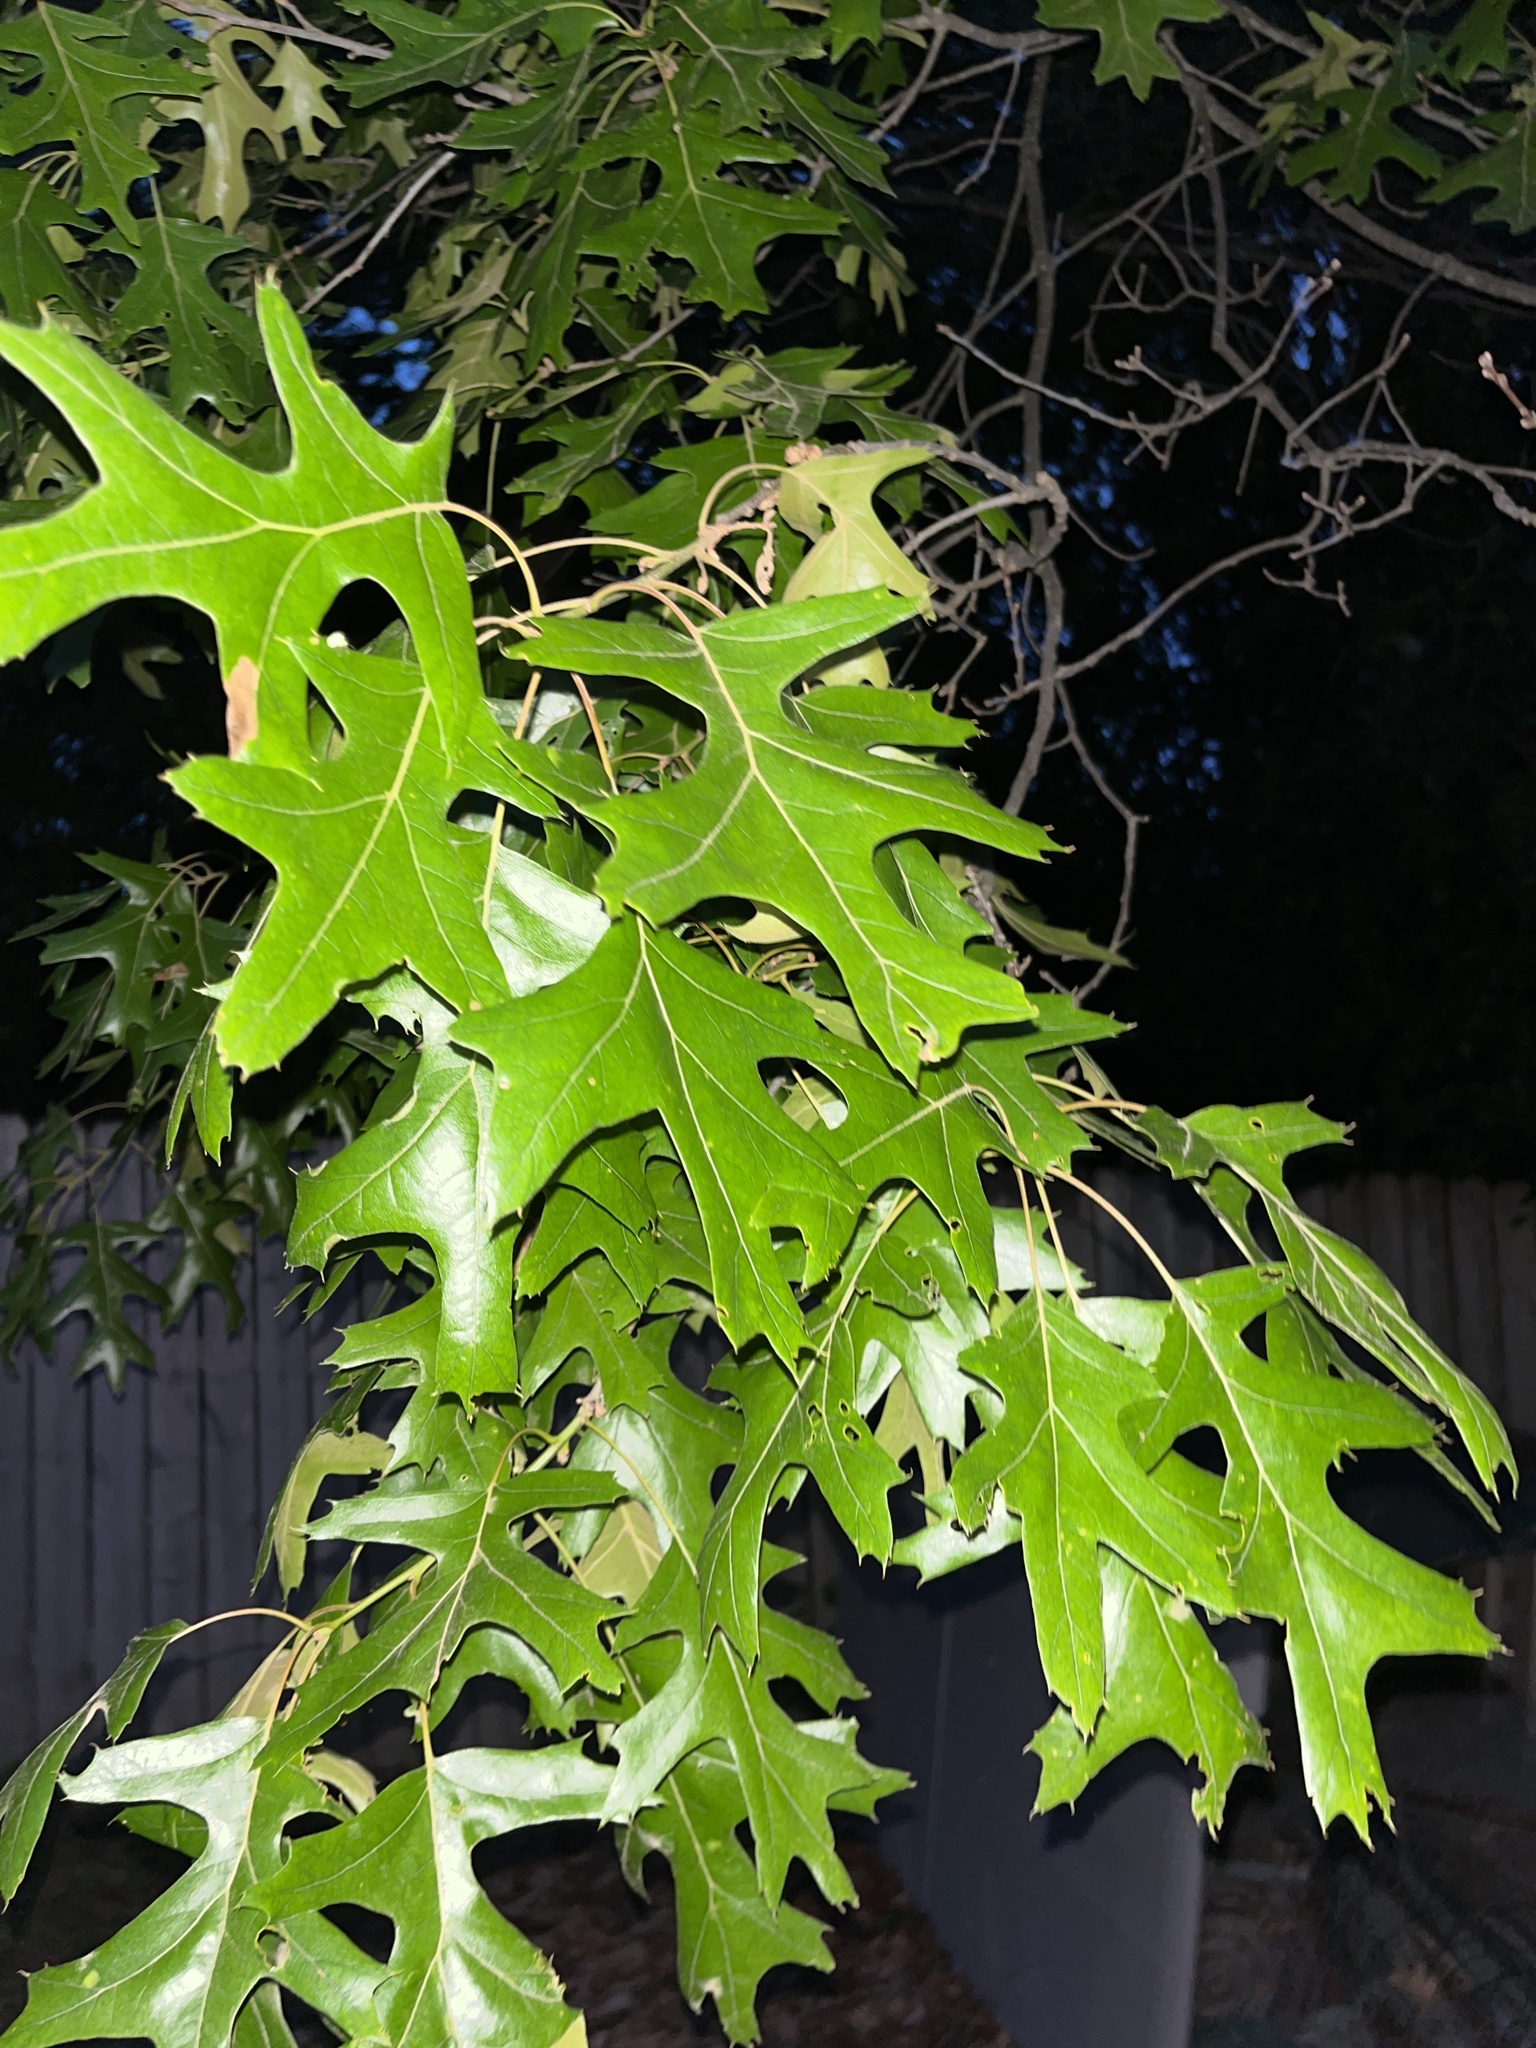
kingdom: Plantae
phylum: Tracheophyta
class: Magnoliopsida
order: Fagales
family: Fagaceae
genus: Quercus
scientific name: Quercus palustris
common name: Pin oak
